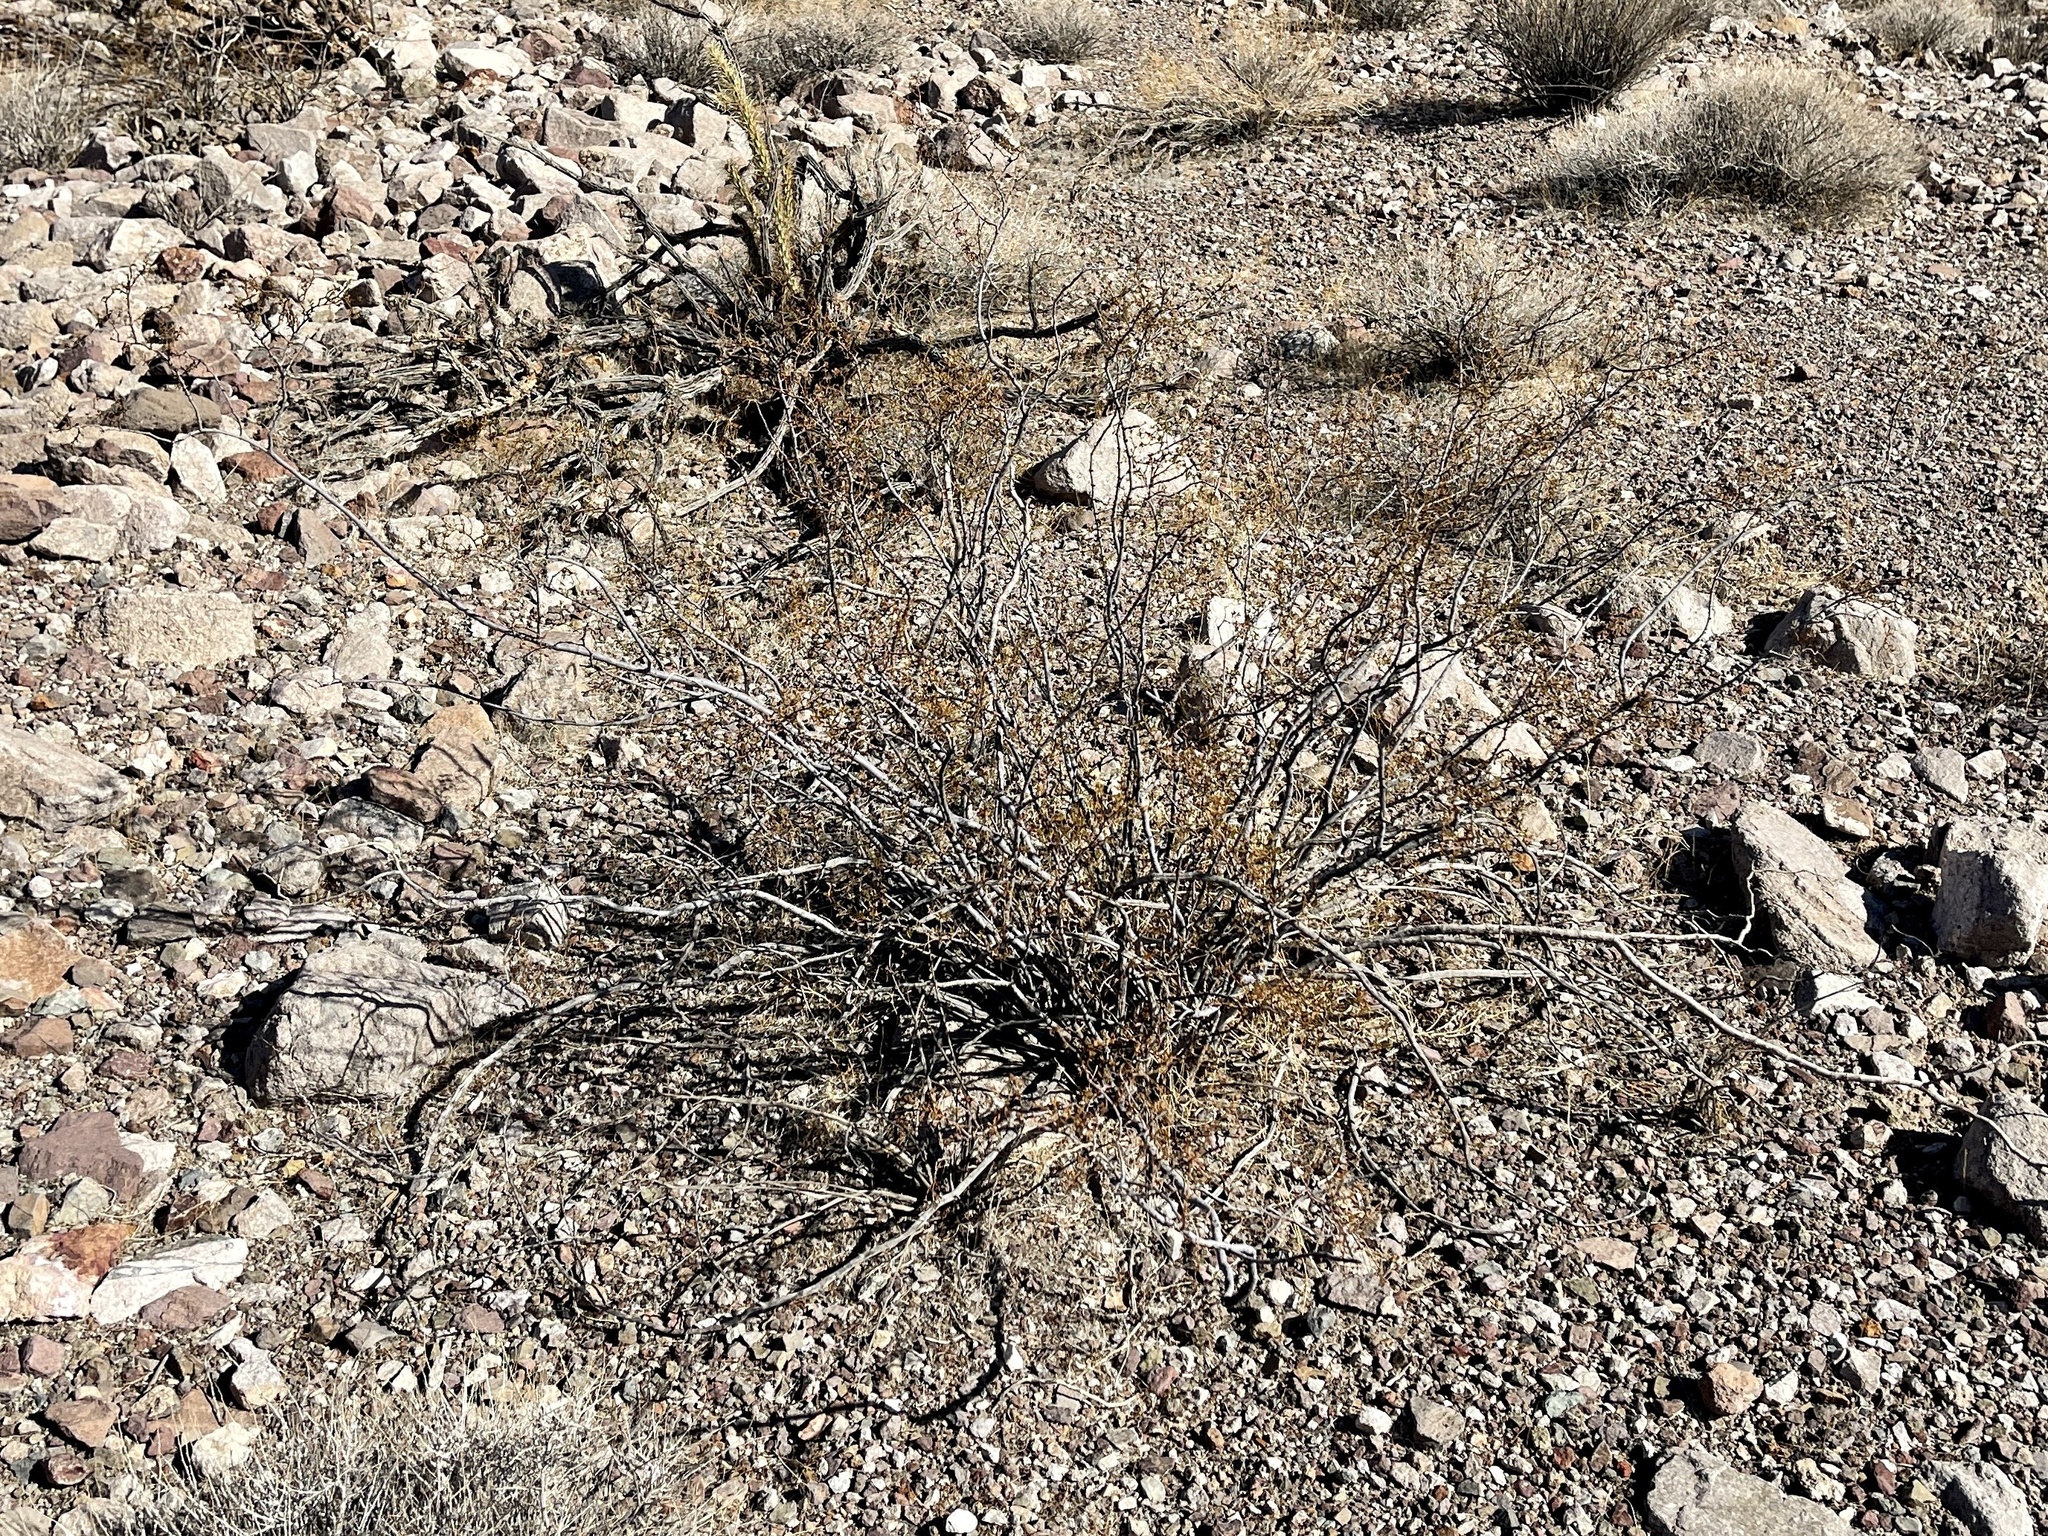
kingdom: Plantae
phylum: Tracheophyta
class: Magnoliopsida
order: Zygophyllales
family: Zygophyllaceae
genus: Larrea
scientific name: Larrea tridentata
